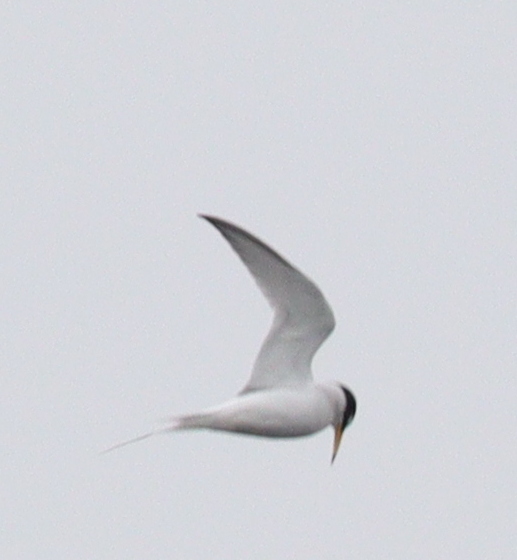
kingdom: Animalia
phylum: Chordata
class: Aves
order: Charadriiformes
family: Laridae
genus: Sternula
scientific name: Sternula albifrons
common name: Little tern
